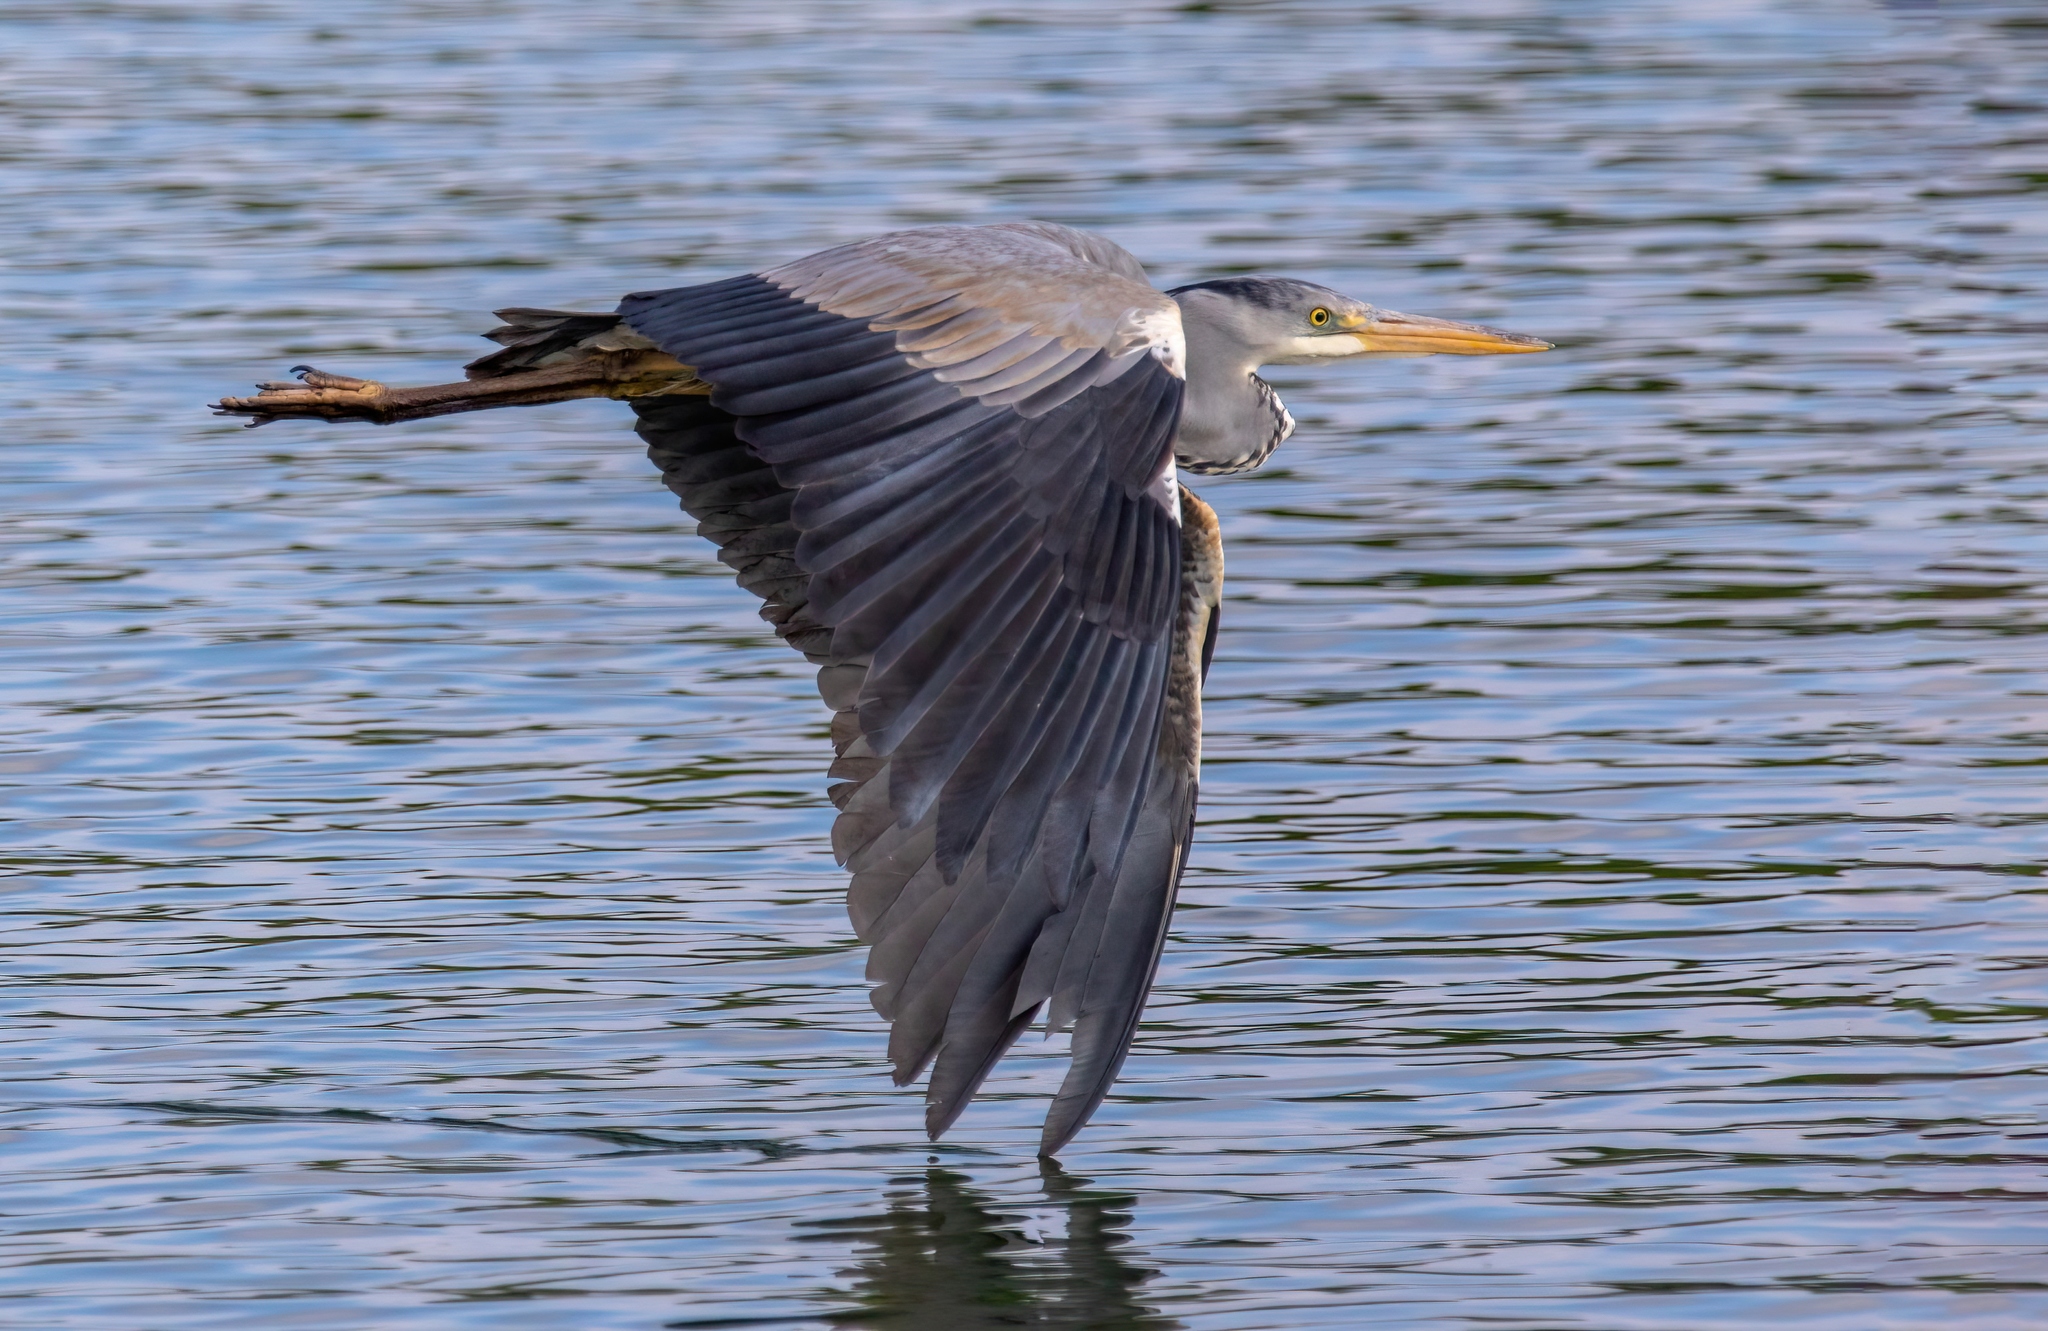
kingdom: Animalia
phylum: Chordata
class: Aves
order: Pelecaniformes
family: Ardeidae
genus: Ardea
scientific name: Ardea cinerea
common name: Grey heron
